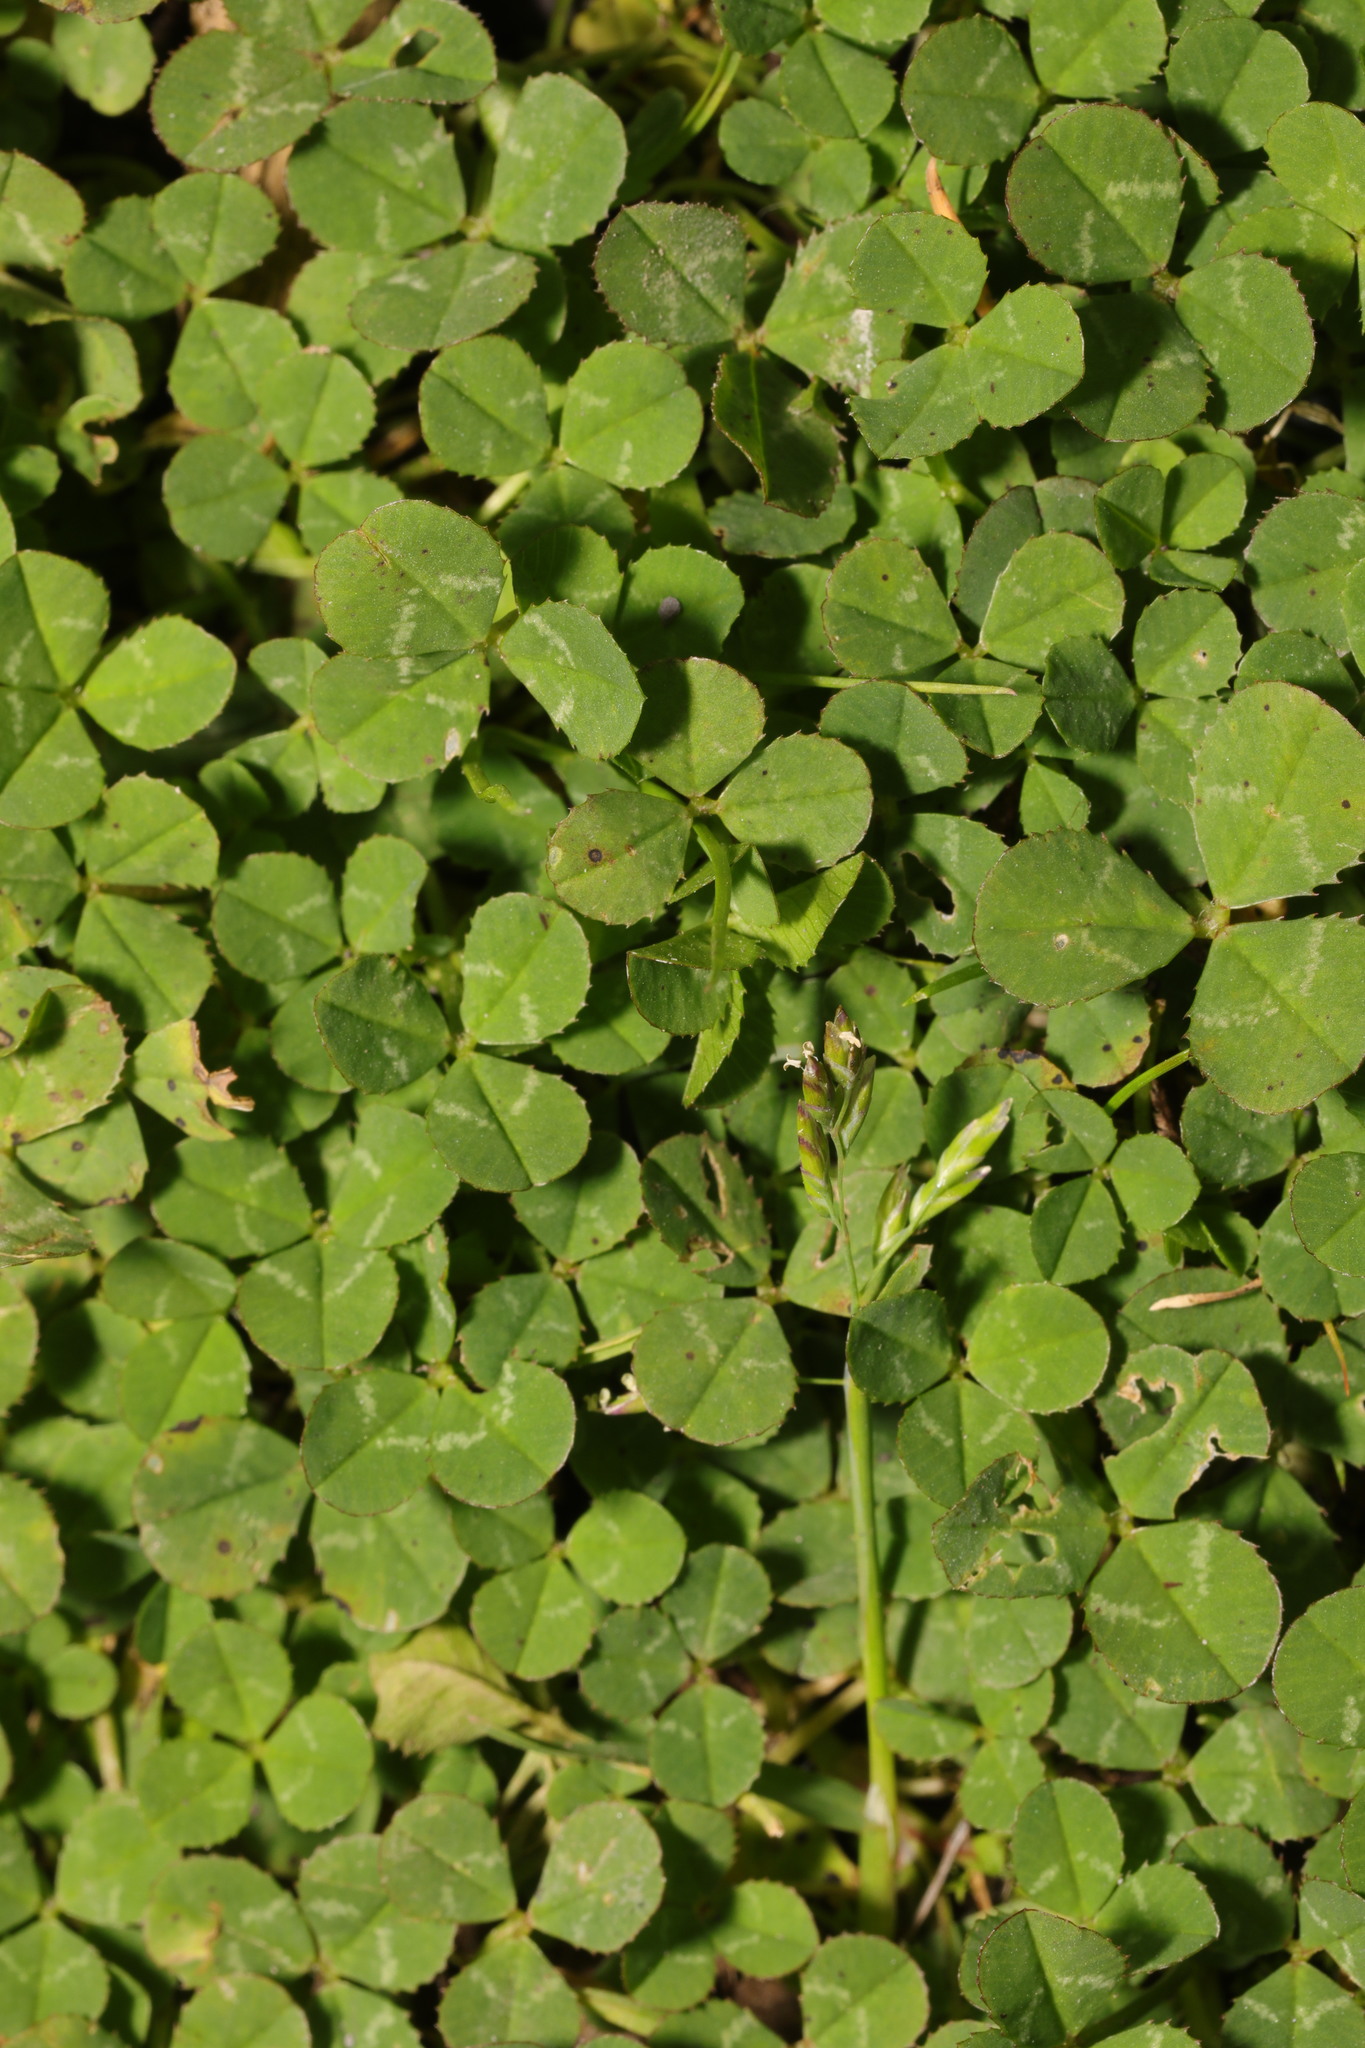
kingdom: Plantae
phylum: Tracheophyta
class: Magnoliopsida
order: Fabales
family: Fabaceae
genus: Trifolium
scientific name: Trifolium repens
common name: White clover
